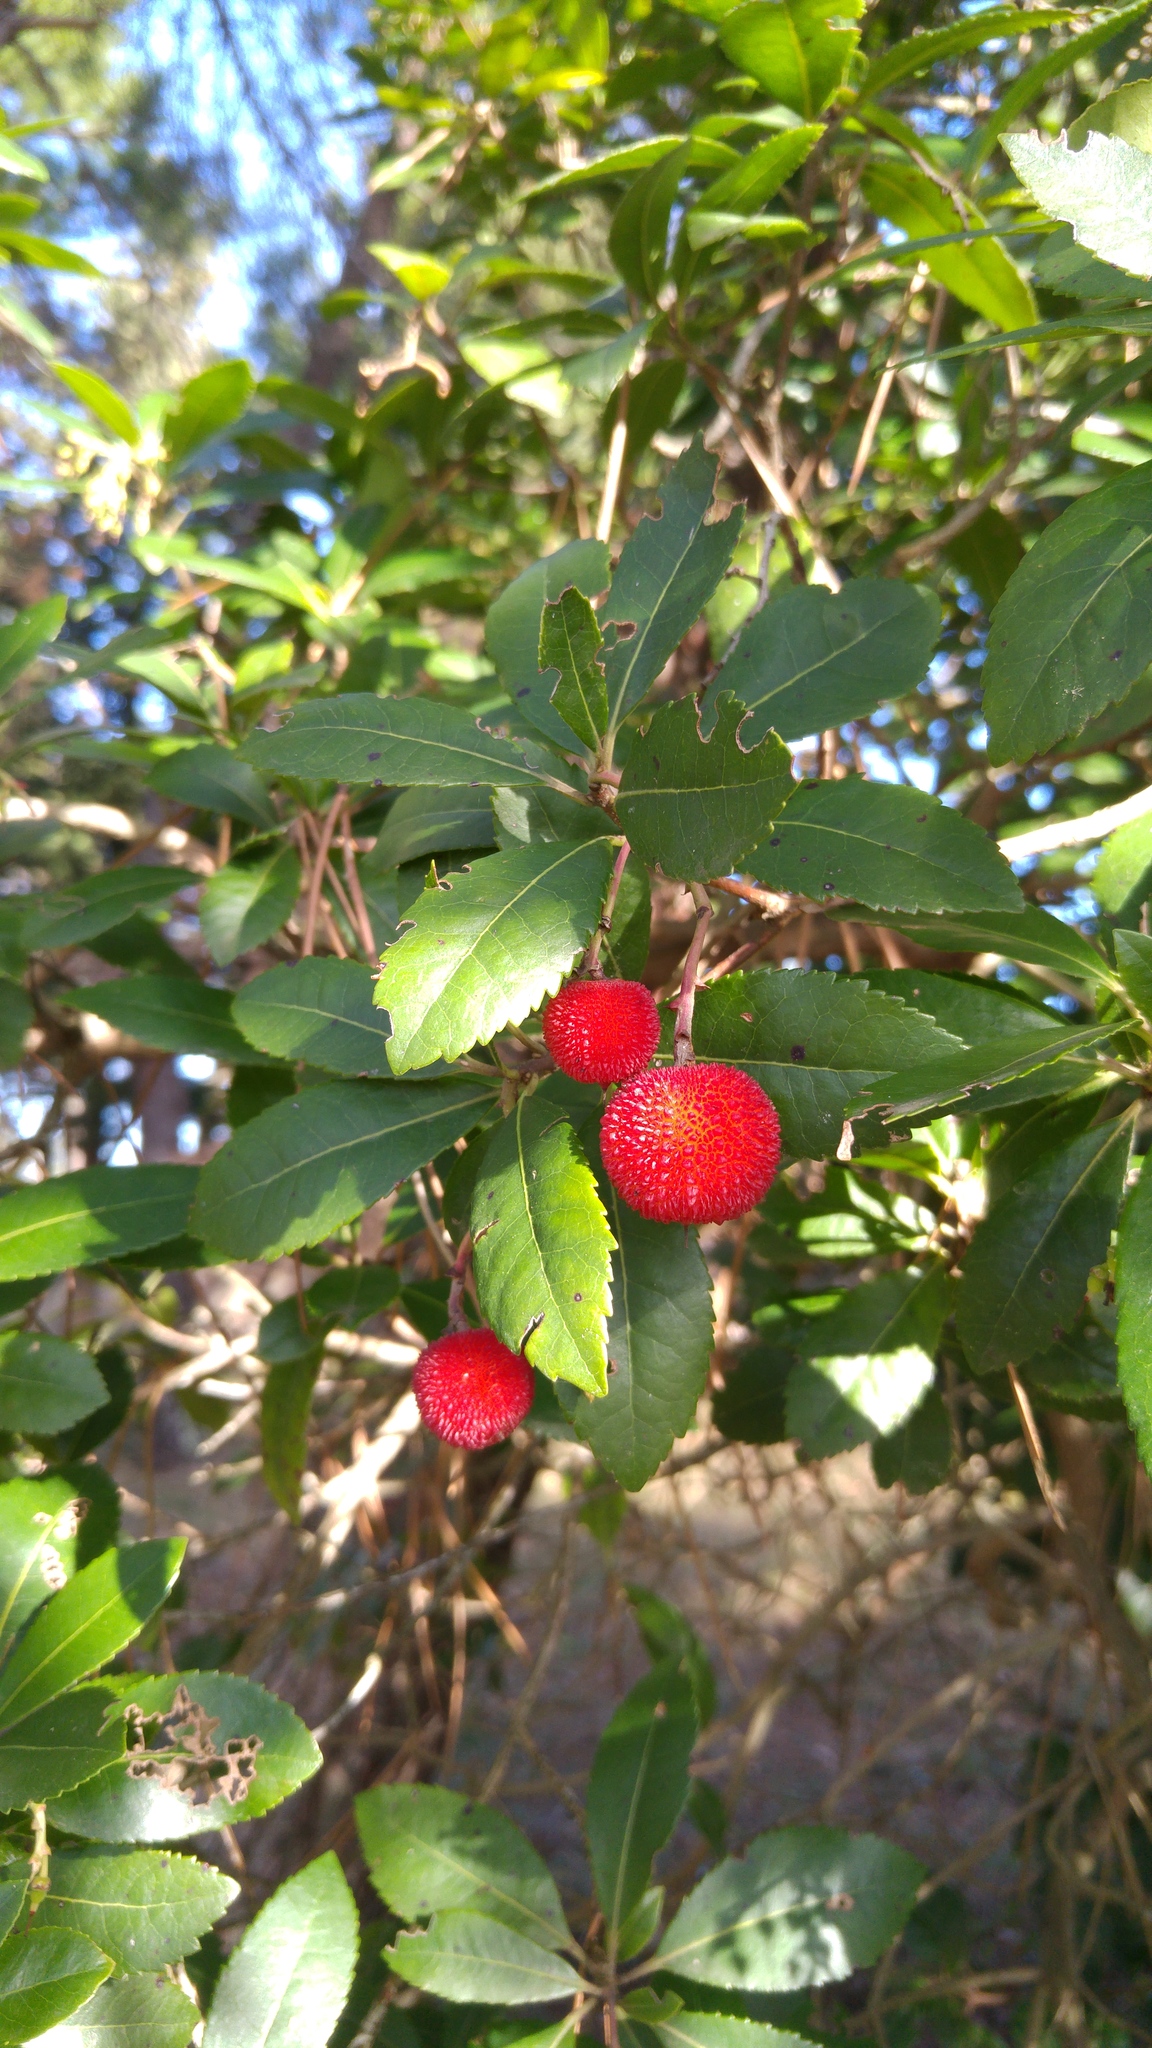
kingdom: Plantae
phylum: Tracheophyta
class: Magnoliopsida
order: Ericales
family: Ericaceae
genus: Arbutus
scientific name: Arbutus unedo
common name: Strawberry-tree
